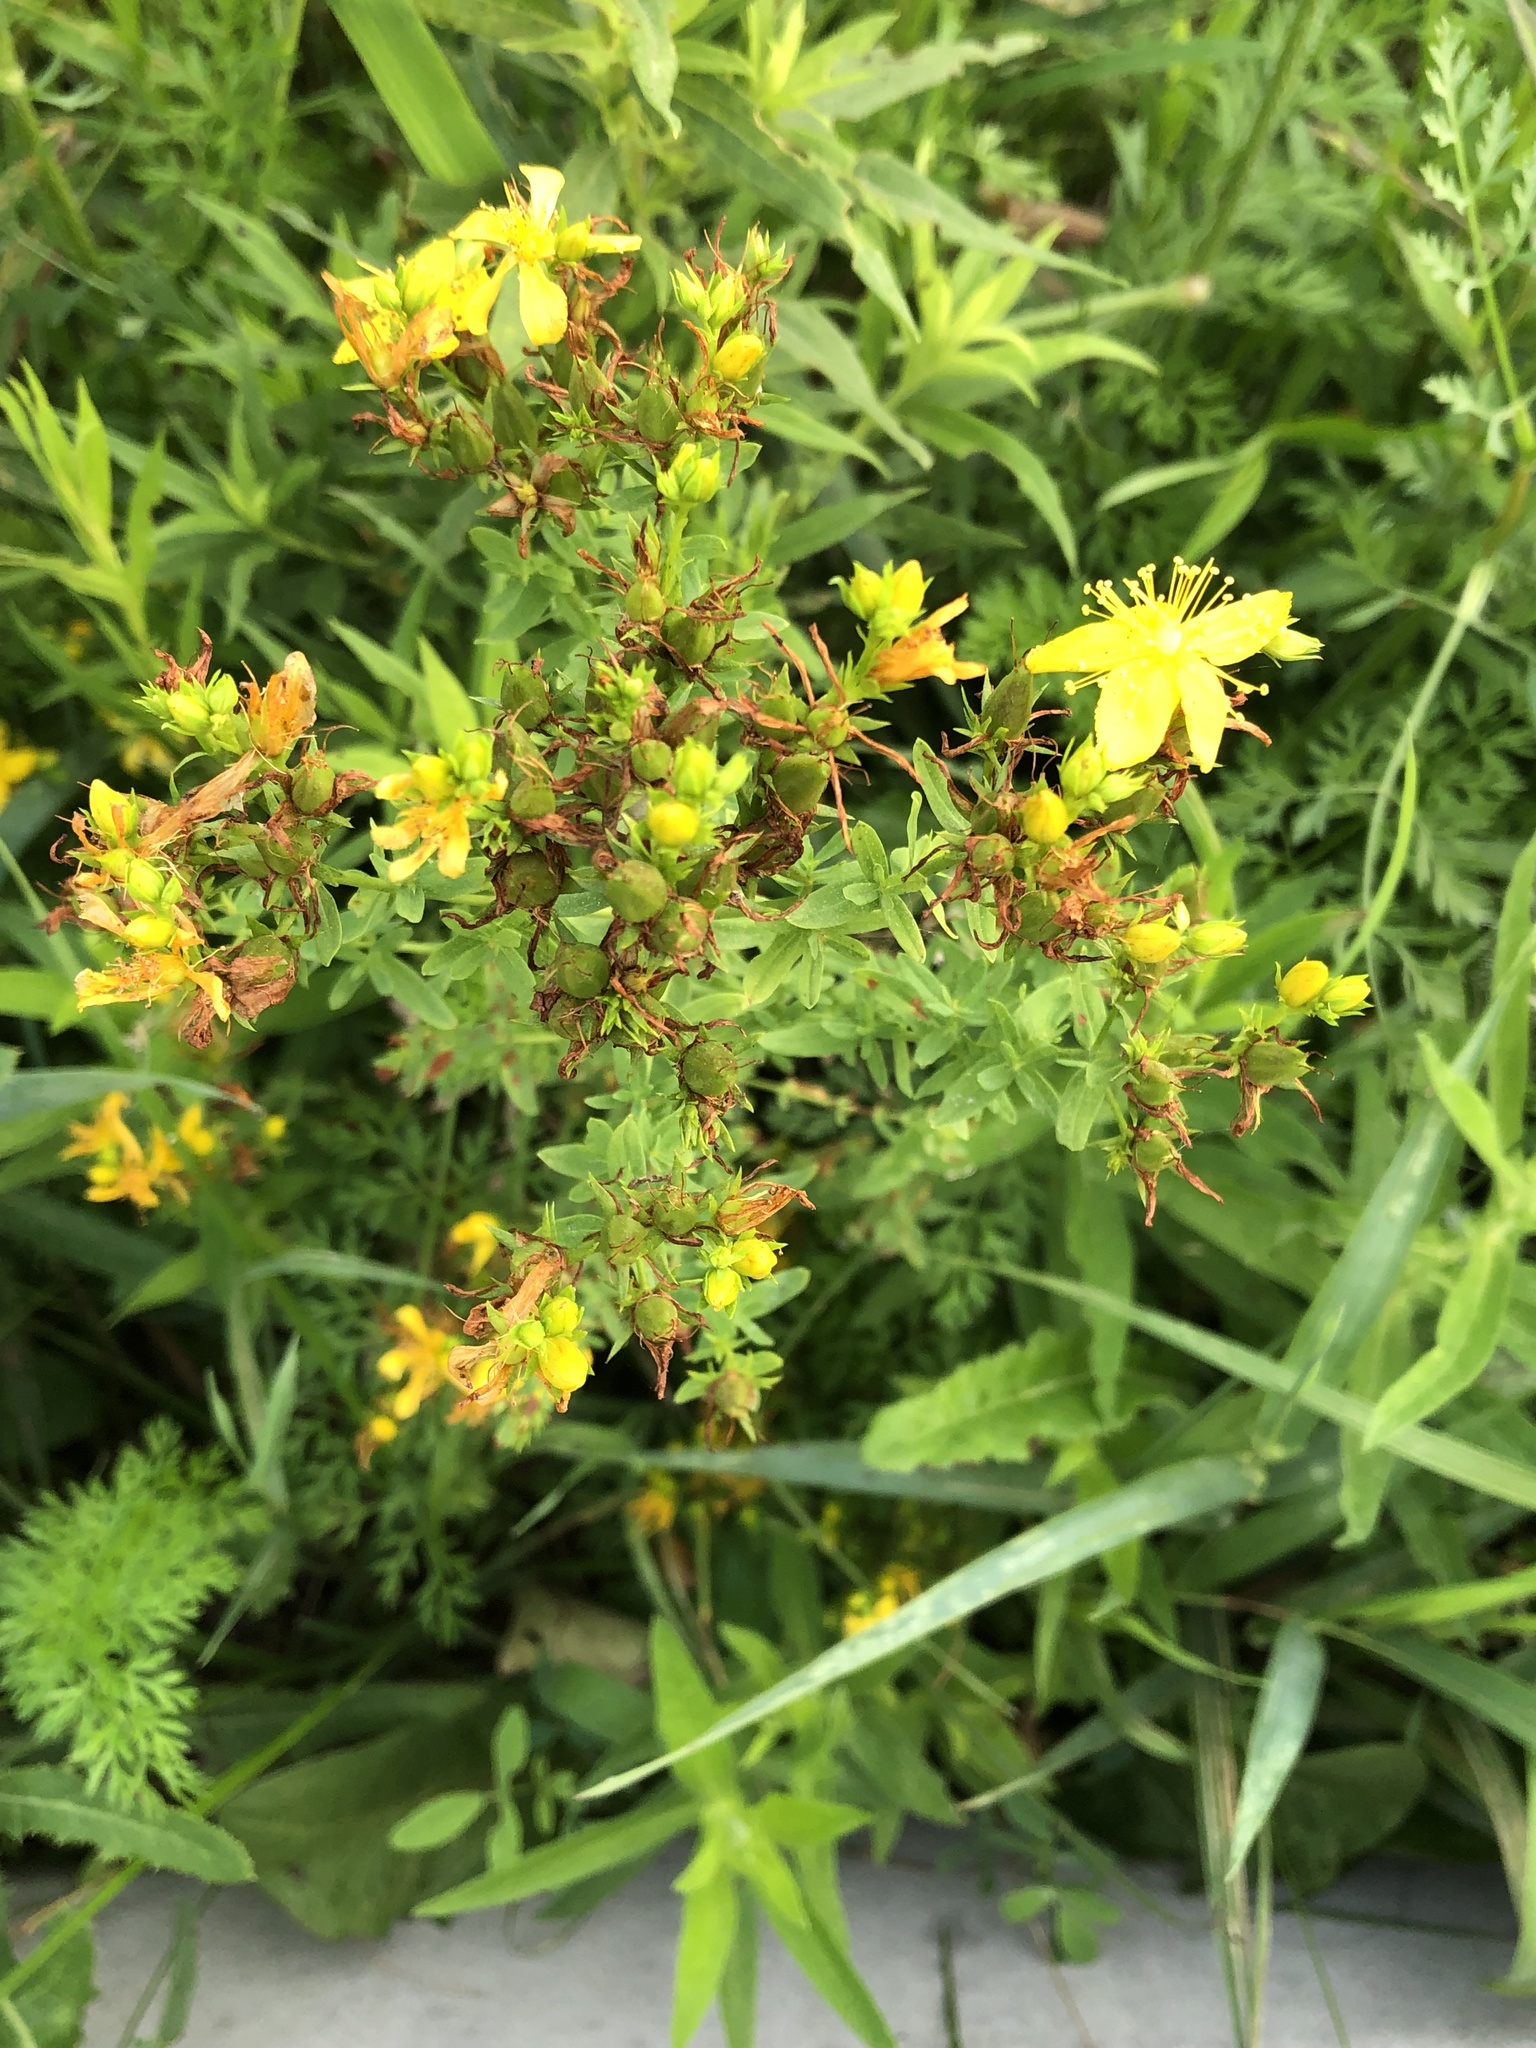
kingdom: Plantae
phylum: Tracheophyta
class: Magnoliopsida
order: Malpighiales
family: Hypericaceae
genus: Hypericum
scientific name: Hypericum perforatum
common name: Common st. johnswort
